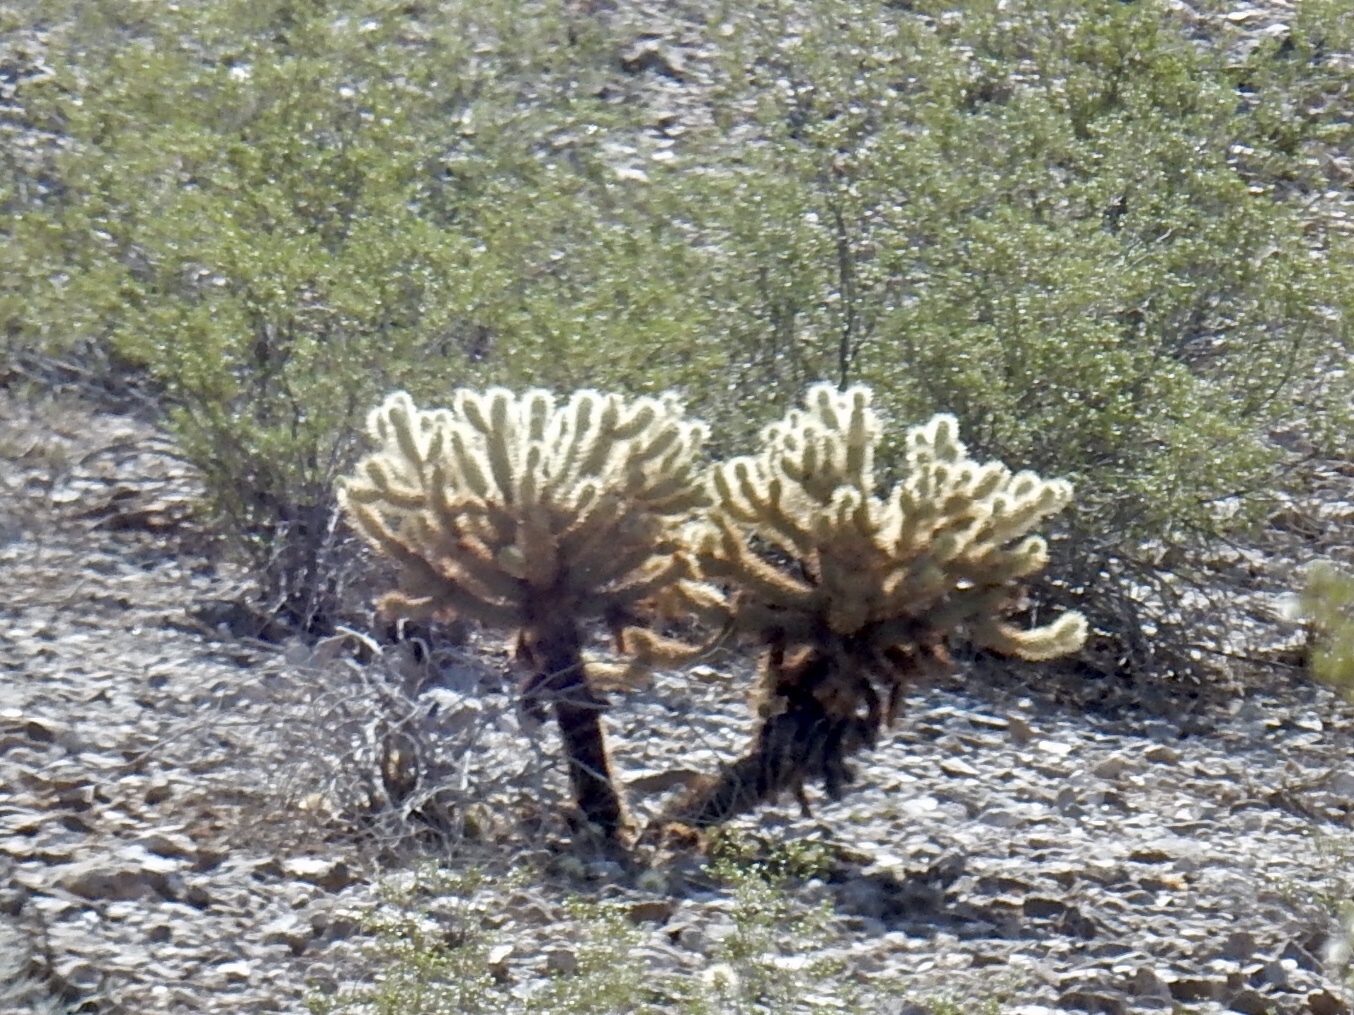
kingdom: Plantae
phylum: Tracheophyta
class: Magnoliopsida
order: Caryophyllales
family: Cactaceae
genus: Cylindropuntia
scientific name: Cylindropuntia fosbergii
